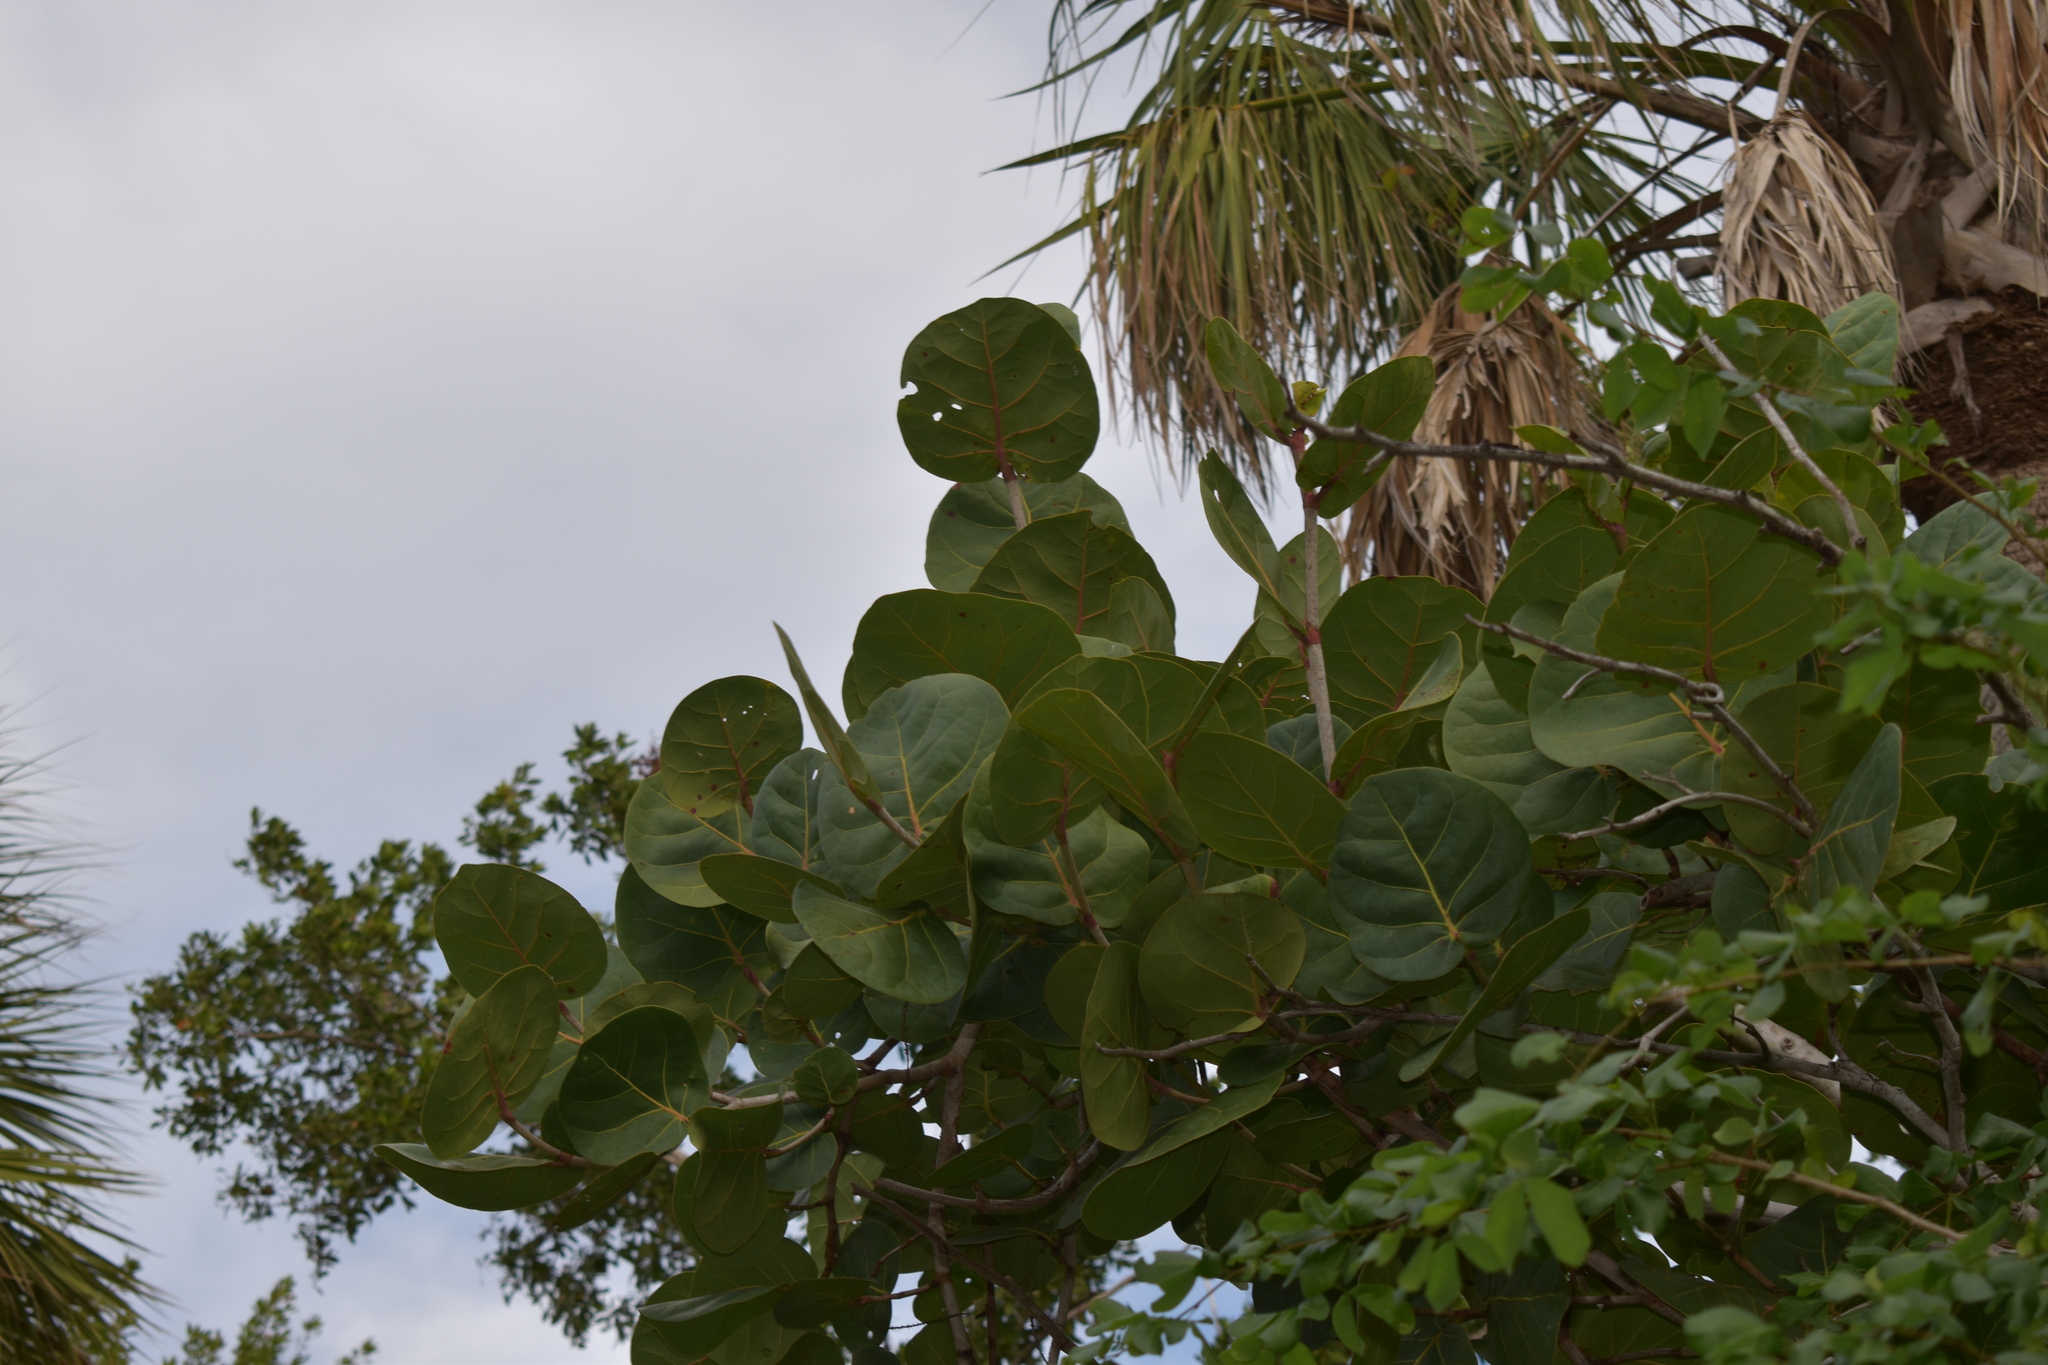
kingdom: Plantae
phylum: Tracheophyta
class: Magnoliopsida
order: Caryophyllales
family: Polygonaceae
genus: Coccoloba
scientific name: Coccoloba uvifera
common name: Seagrape
